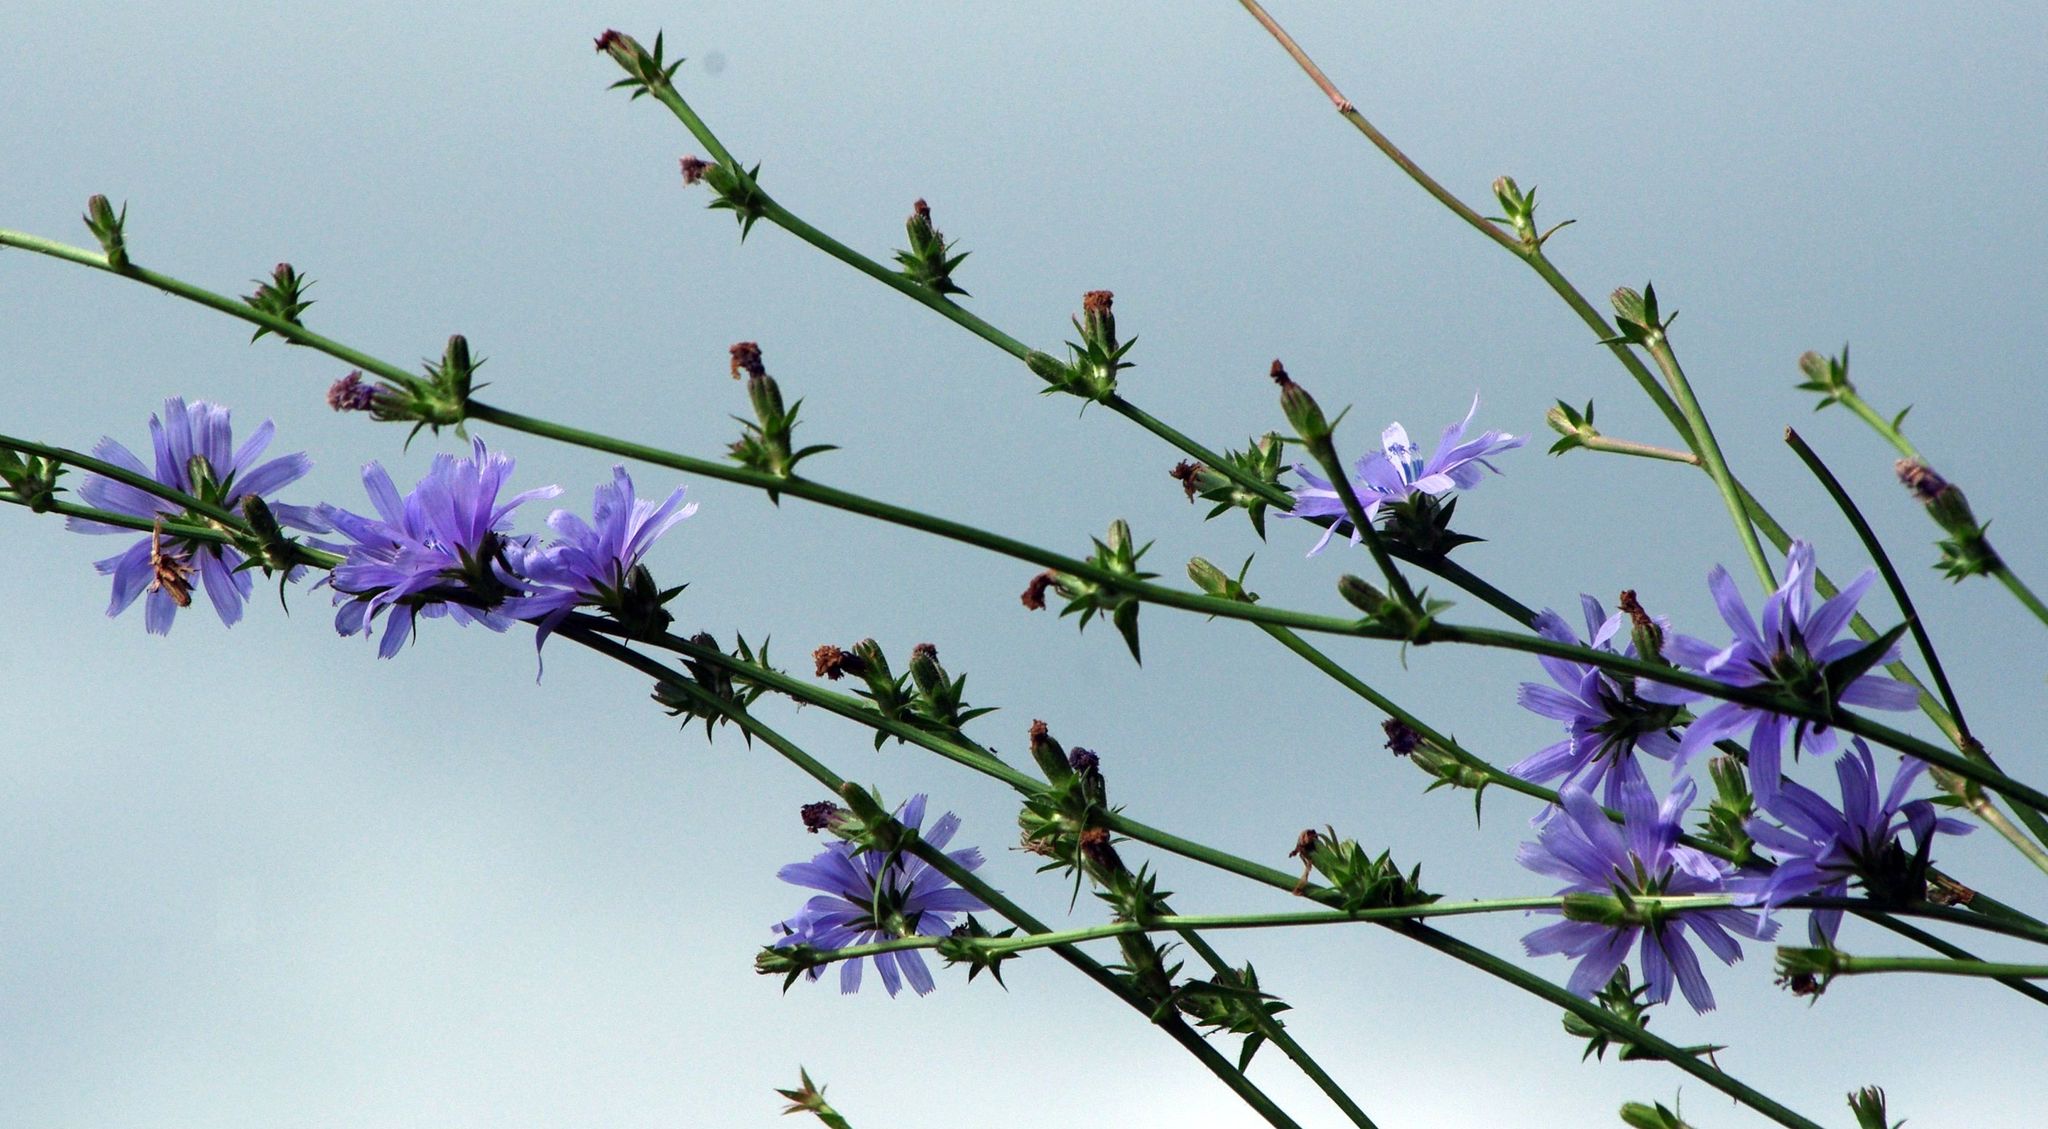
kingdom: Plantae
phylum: Tracheophyta
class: Magnoliopsida
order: Asterales
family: Asteraceae
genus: Cichorium
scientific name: Cichorium intybus
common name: Chicory
